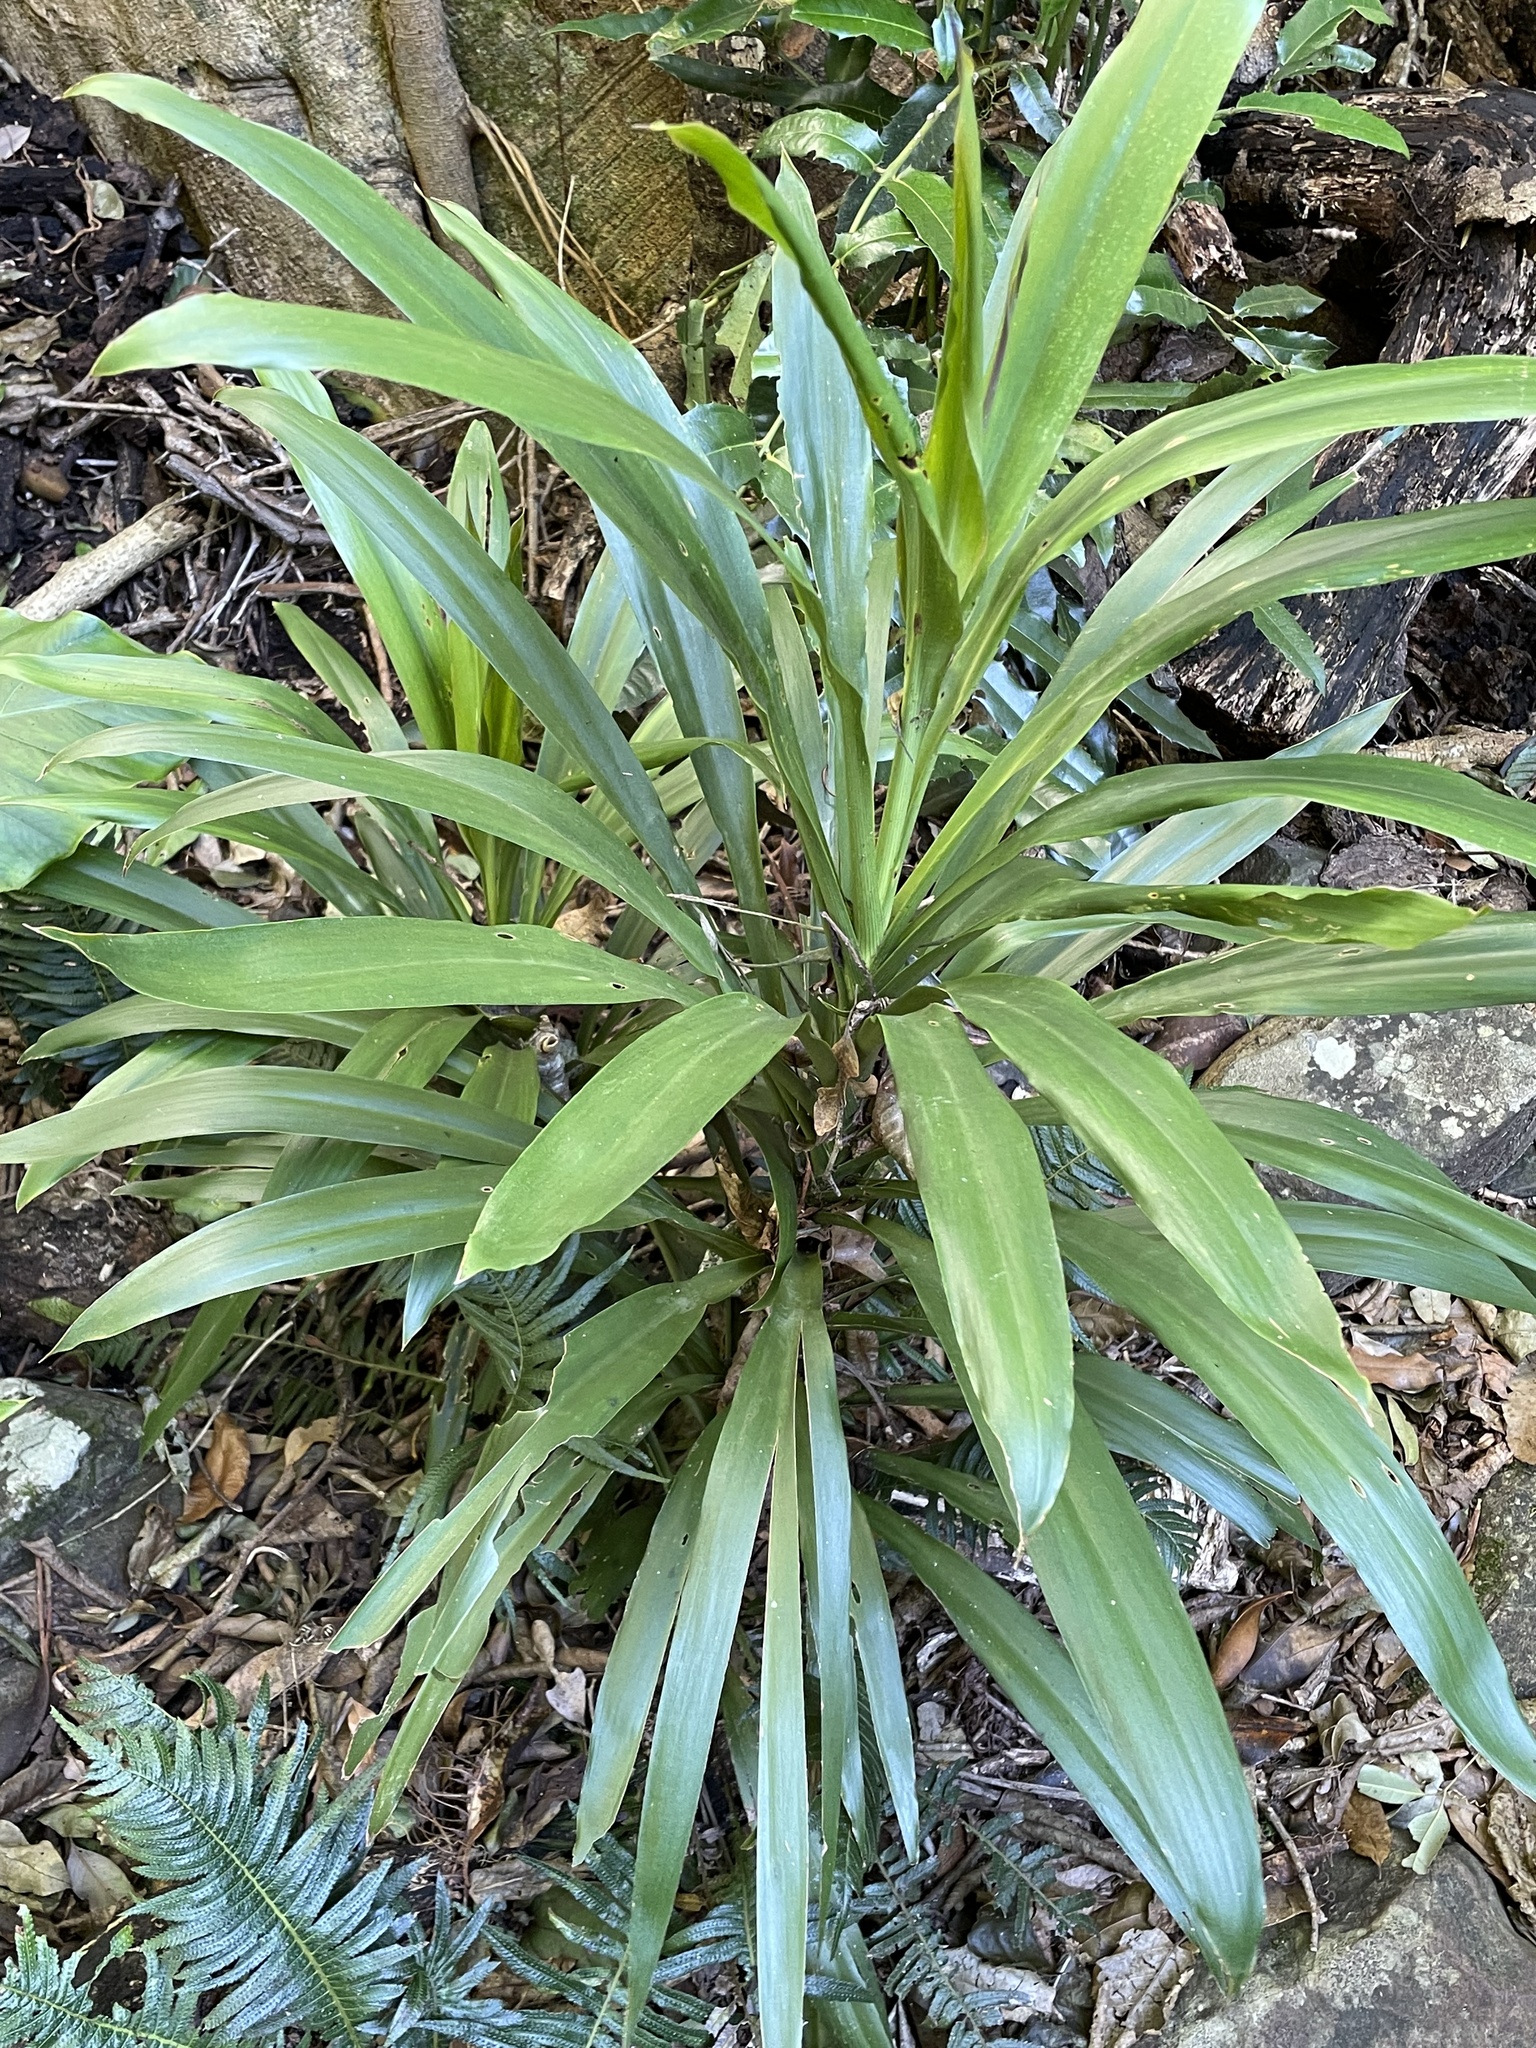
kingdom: Plantae
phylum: Tracheophyta
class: Liliopsida
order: Asparagales
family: Asparagaceae
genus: Cordyline
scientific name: Cordyline rubra
